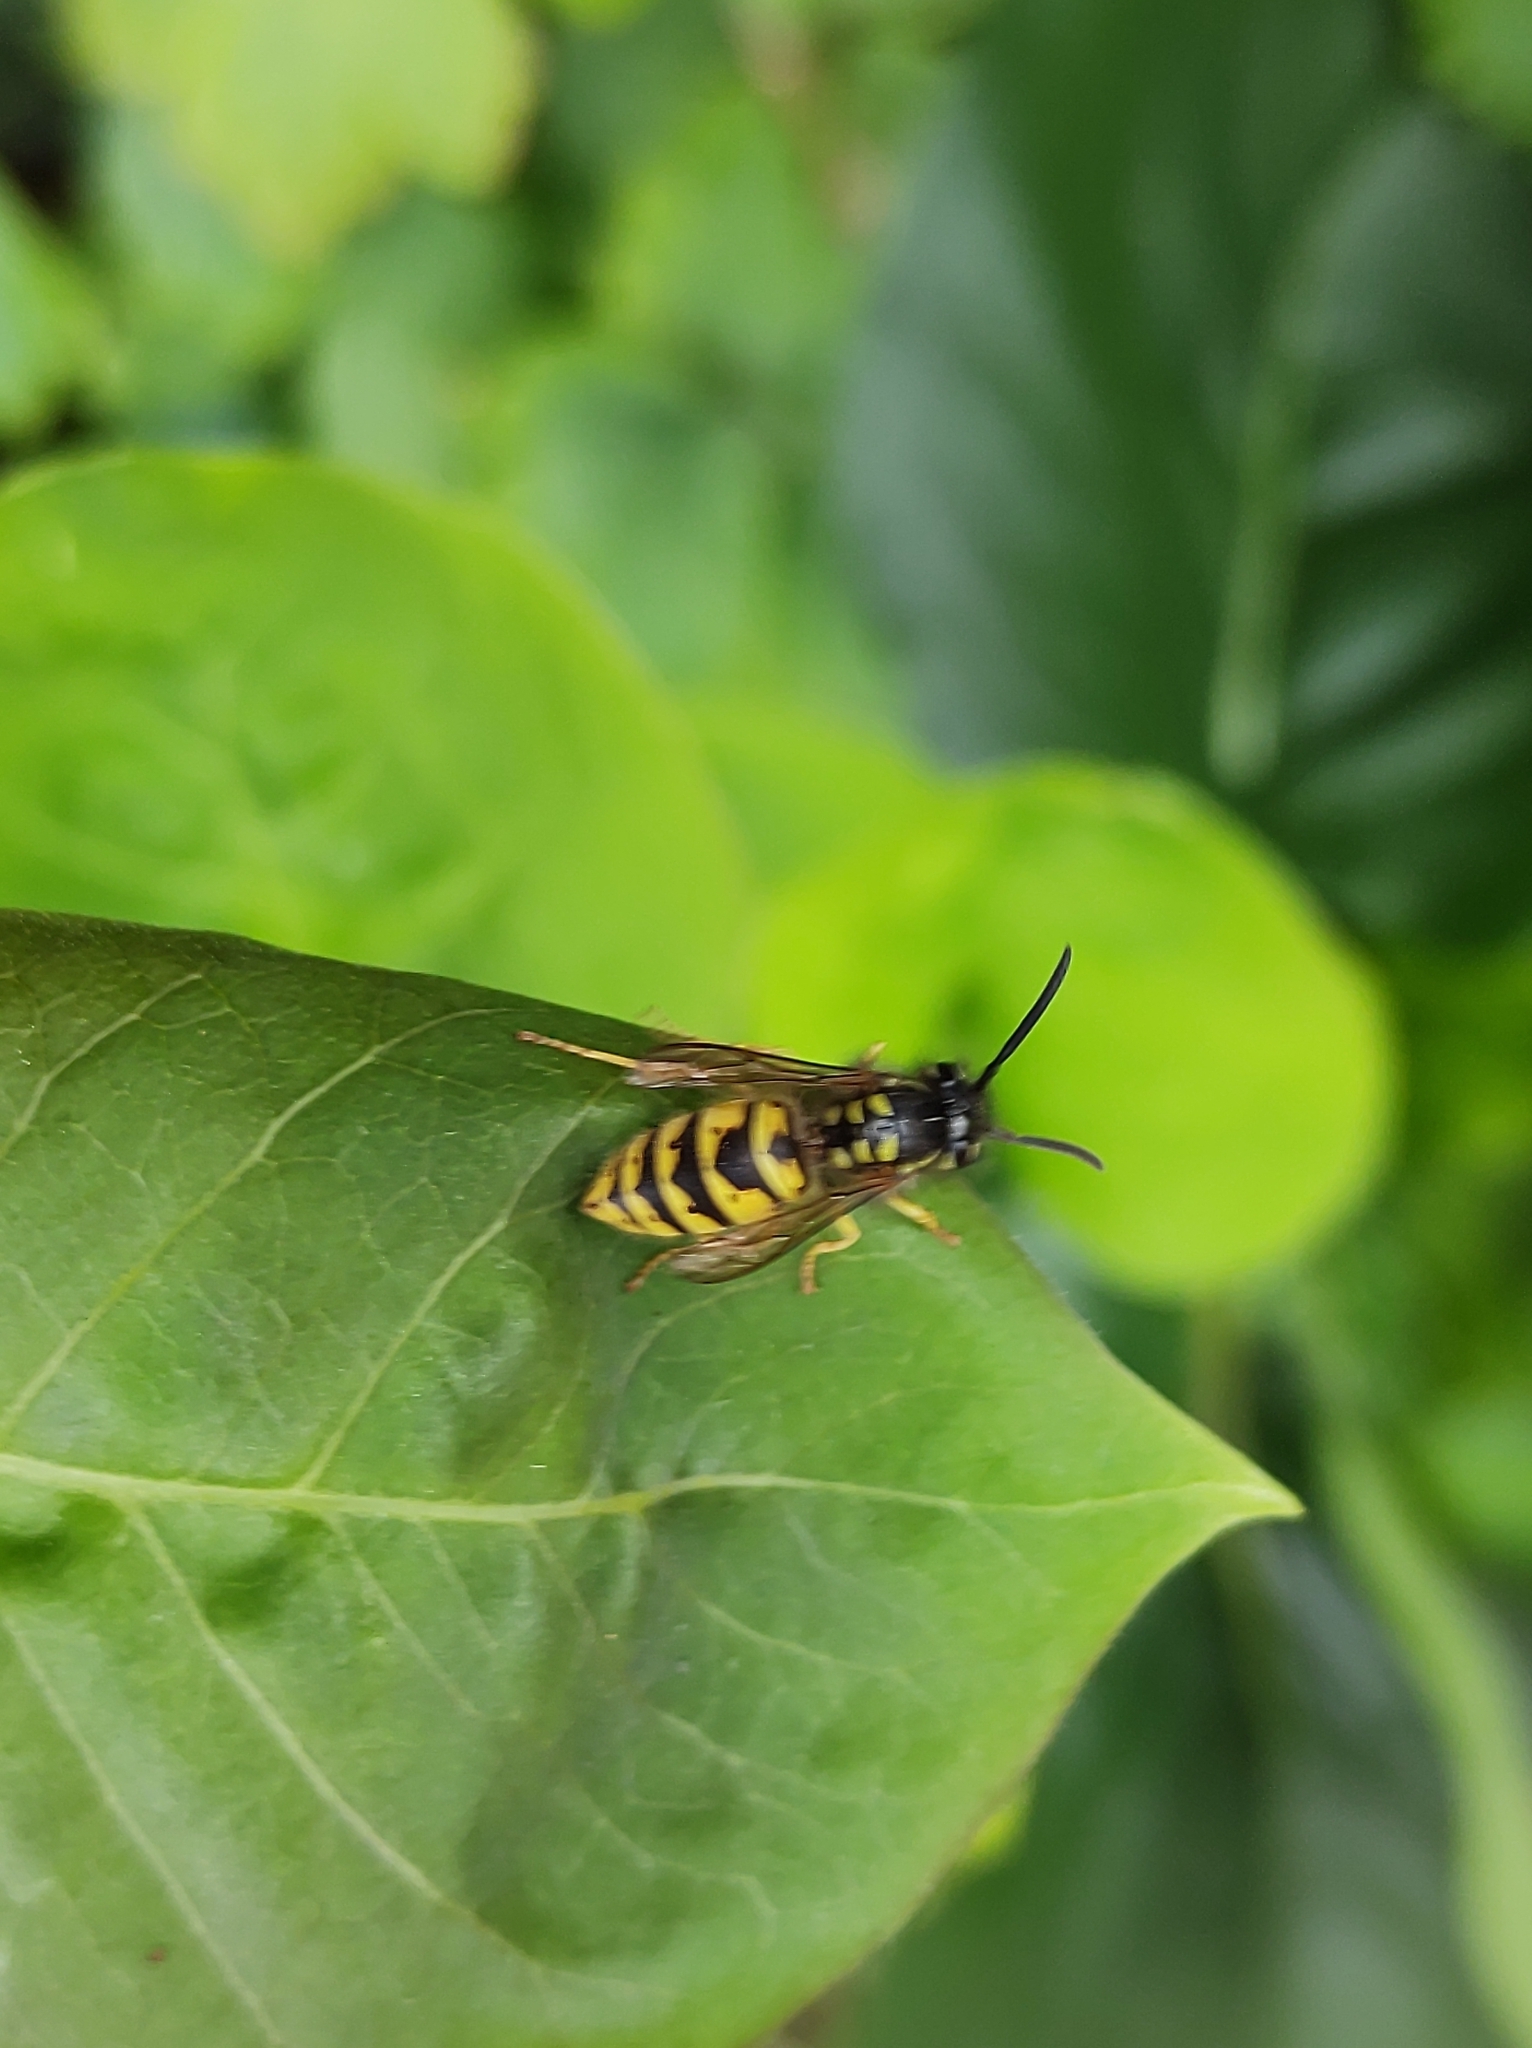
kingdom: Animalia
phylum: Arthropoda
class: Insecta
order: Hymenoptera
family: Vespidae
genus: Vespula
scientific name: Vespula vulgaris
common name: Common wasp
